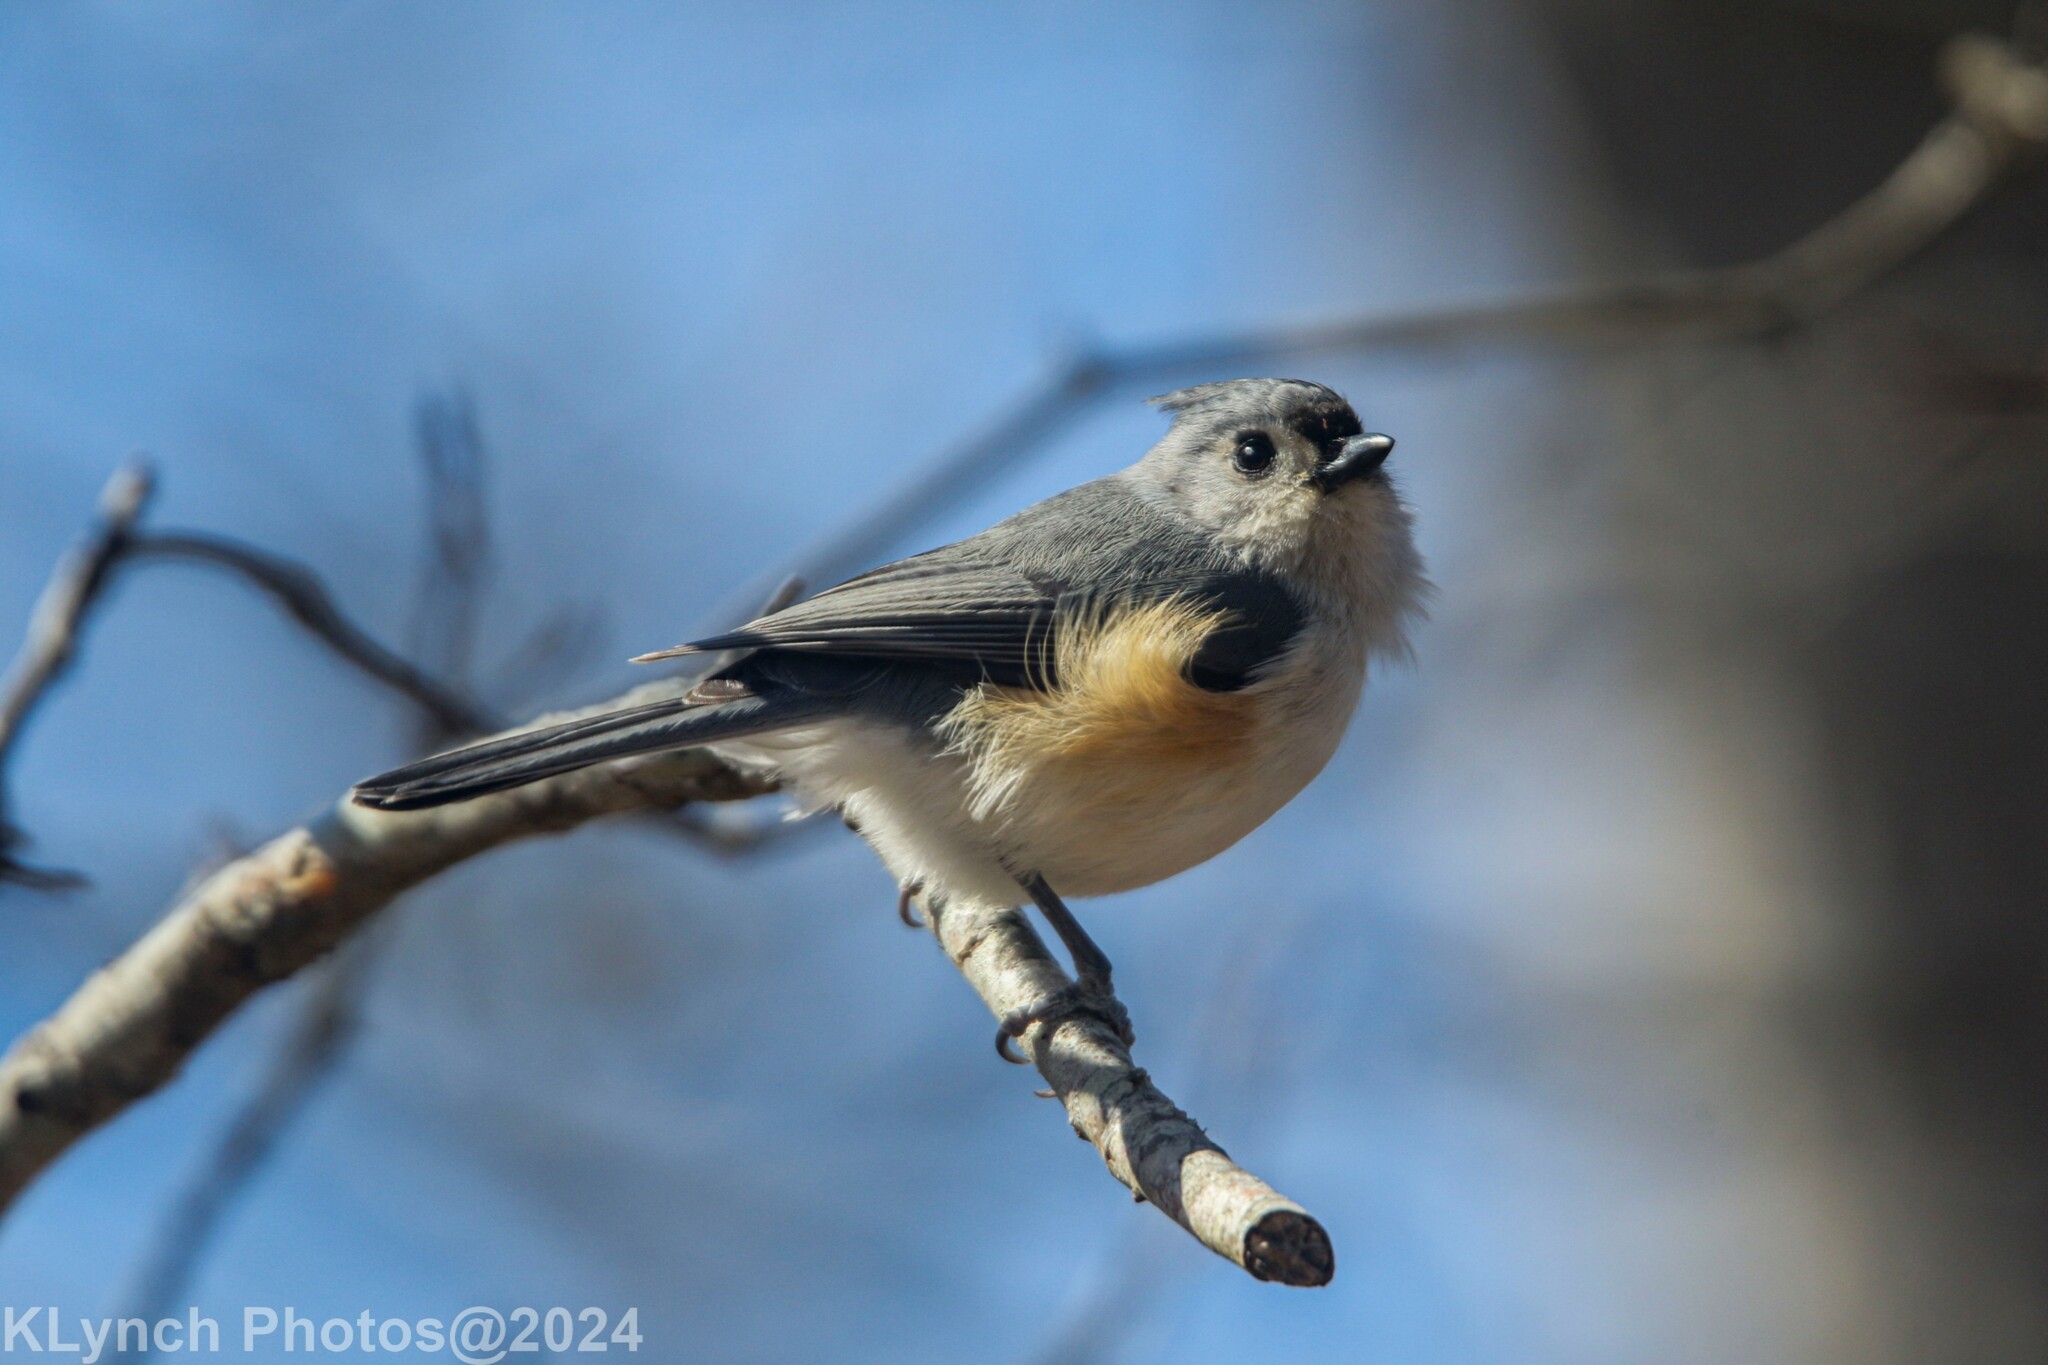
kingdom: Animalia
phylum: Chordata
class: Aves
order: Passeriformes
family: Paridae
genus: Baeolophus
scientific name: Baeolophus bicolor
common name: Tufted titmouse
